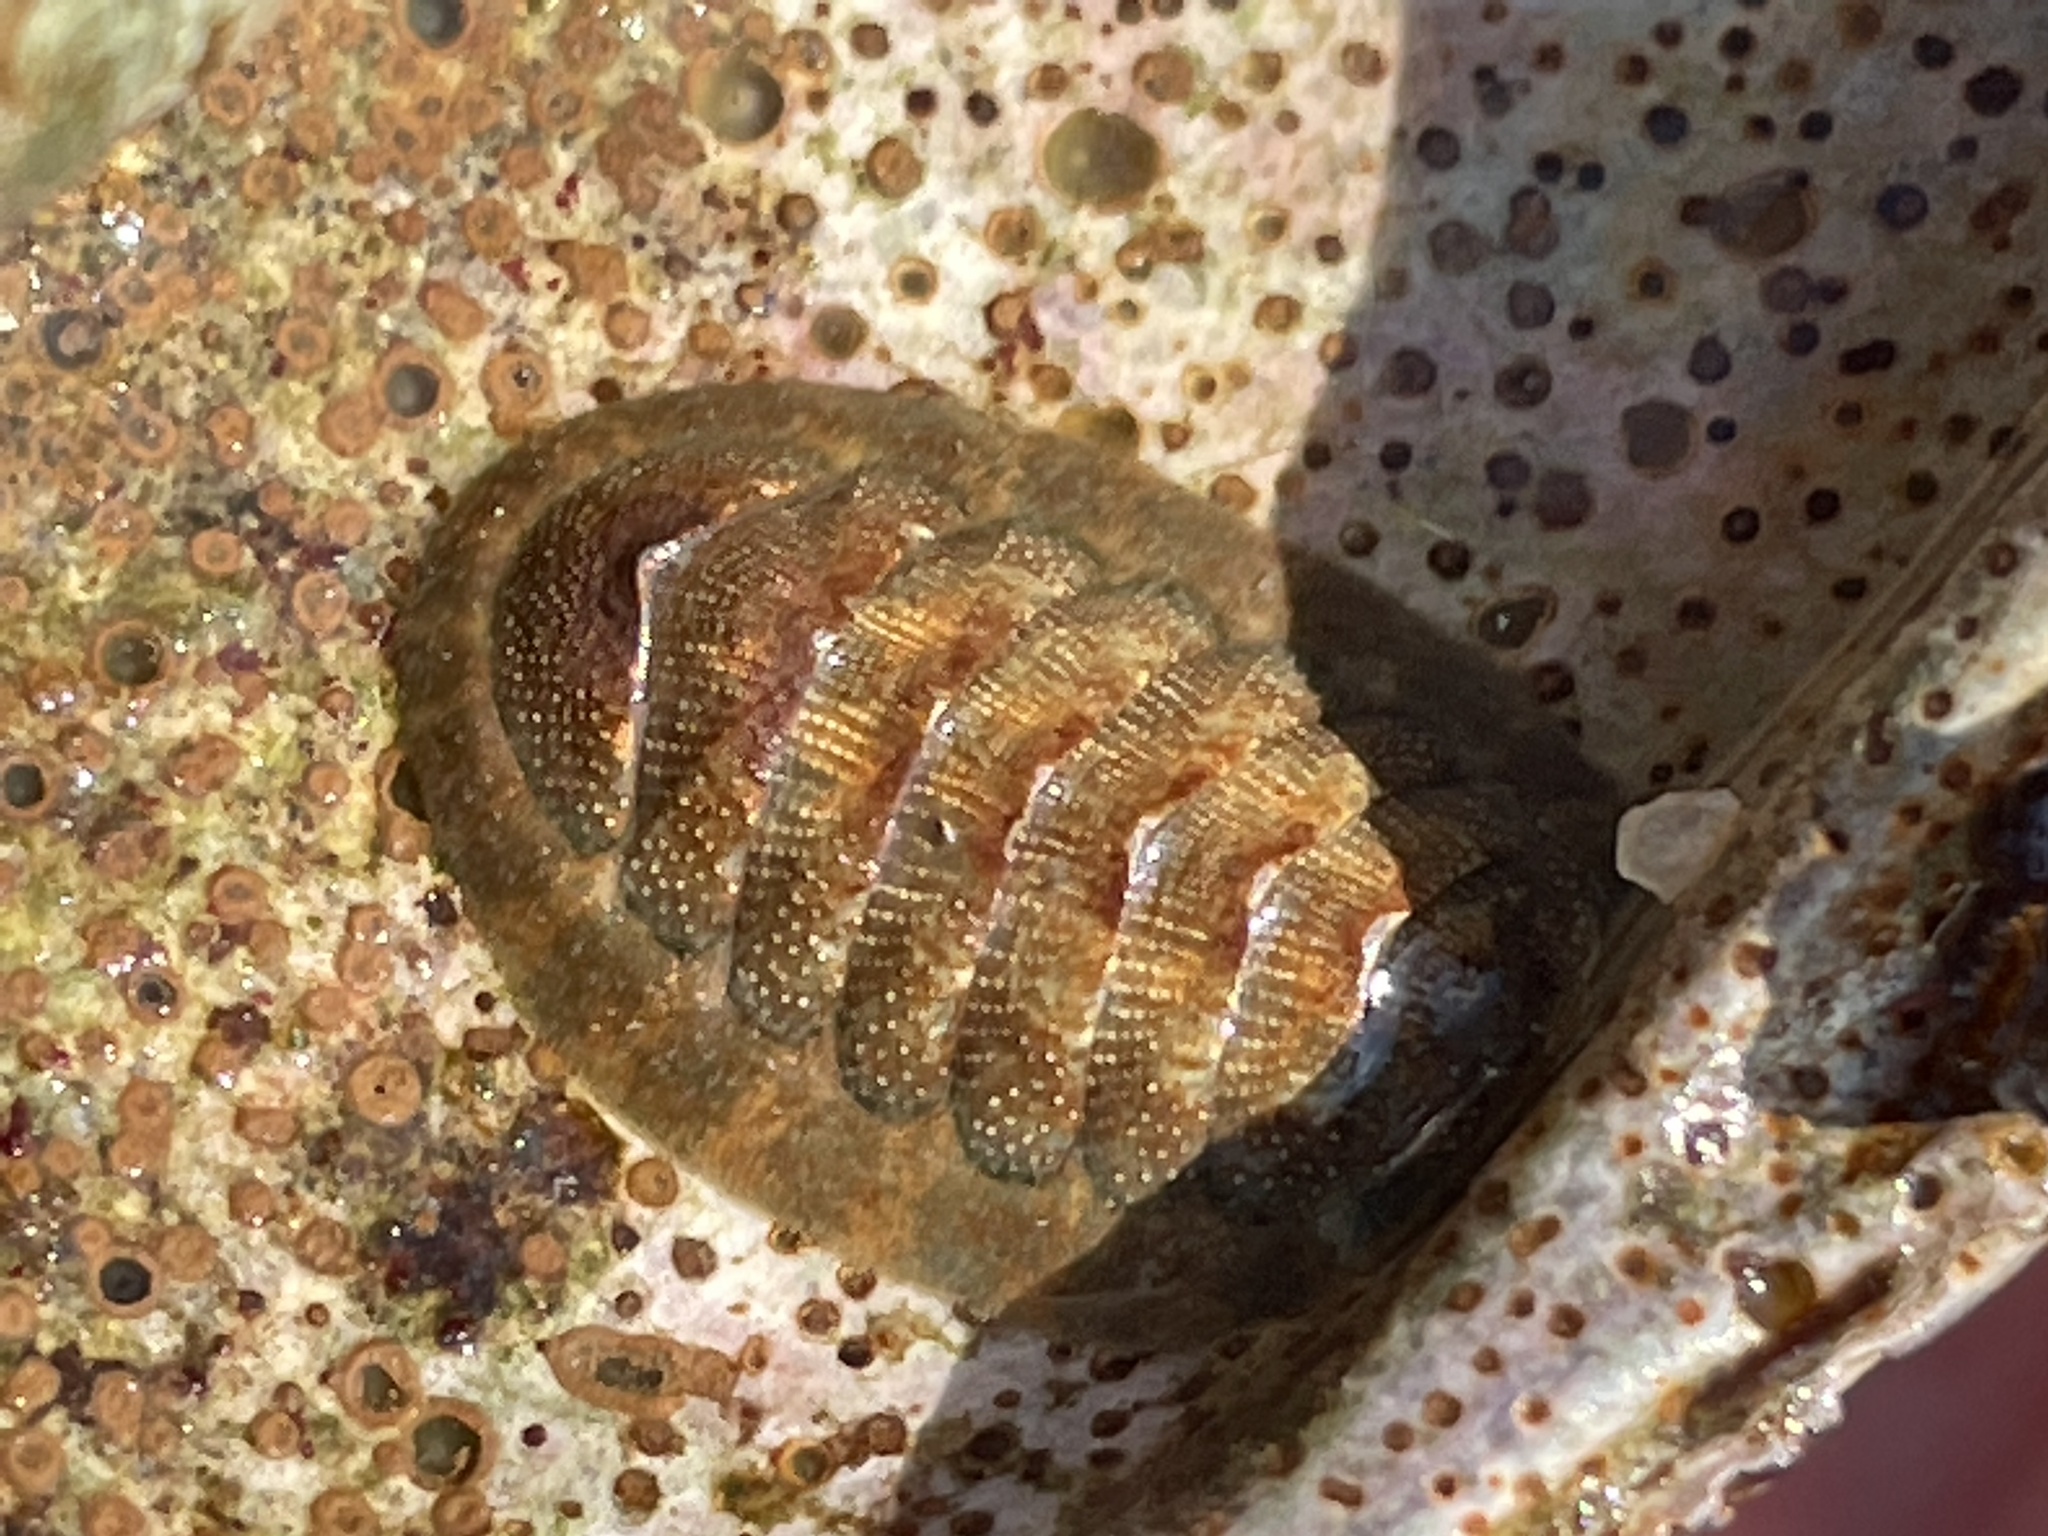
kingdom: Animalia
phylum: Mollusca
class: Polyplacophora
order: Chitonida
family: Chaetopleuridae
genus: Chaetopleura
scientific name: Chaetopleura apiculata
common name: Bee chiton
